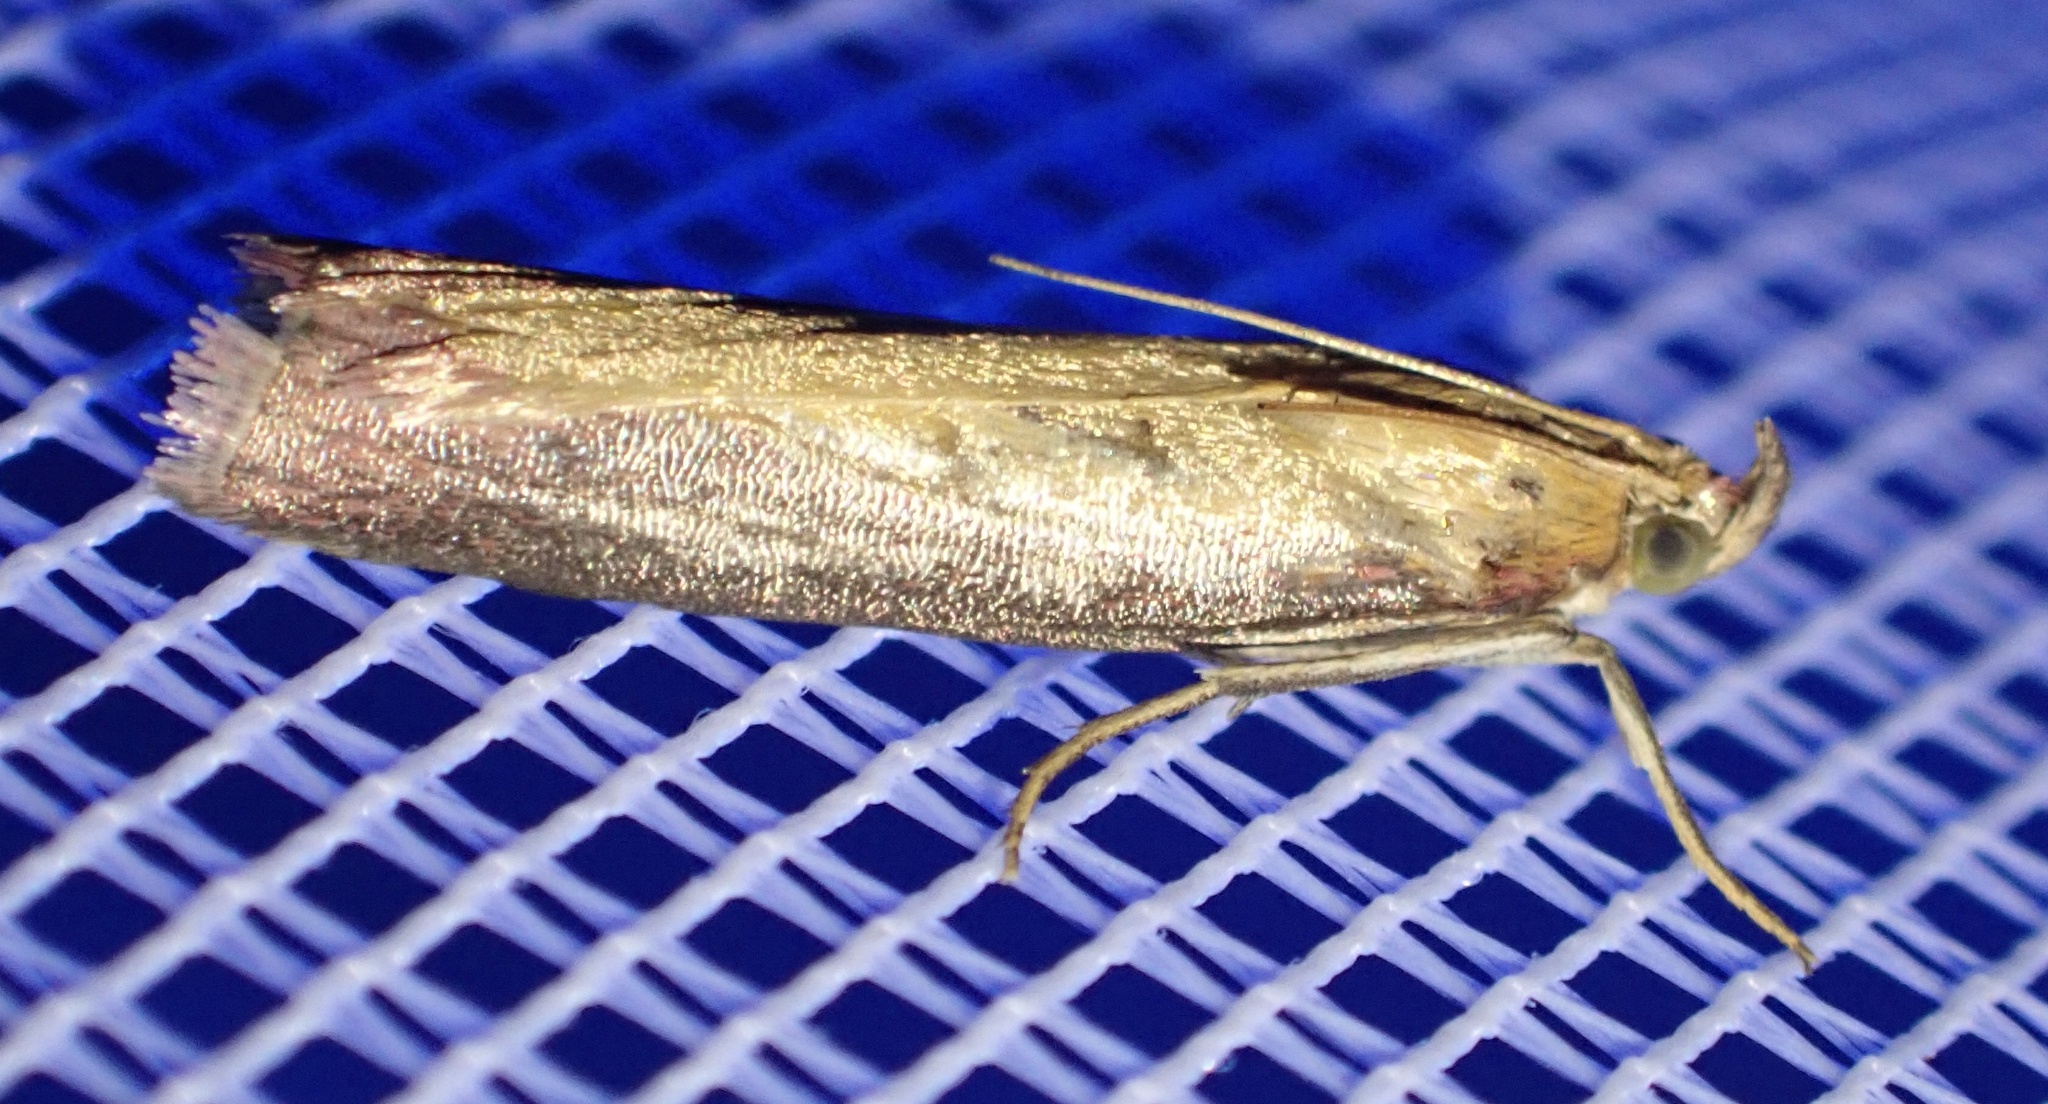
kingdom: Animalia
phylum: Arthropoda
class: Insecta
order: Lepidoptera
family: Pyralidae
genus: Oncocera
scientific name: Oncocera semirubella
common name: Rosy-striped knot-horn
